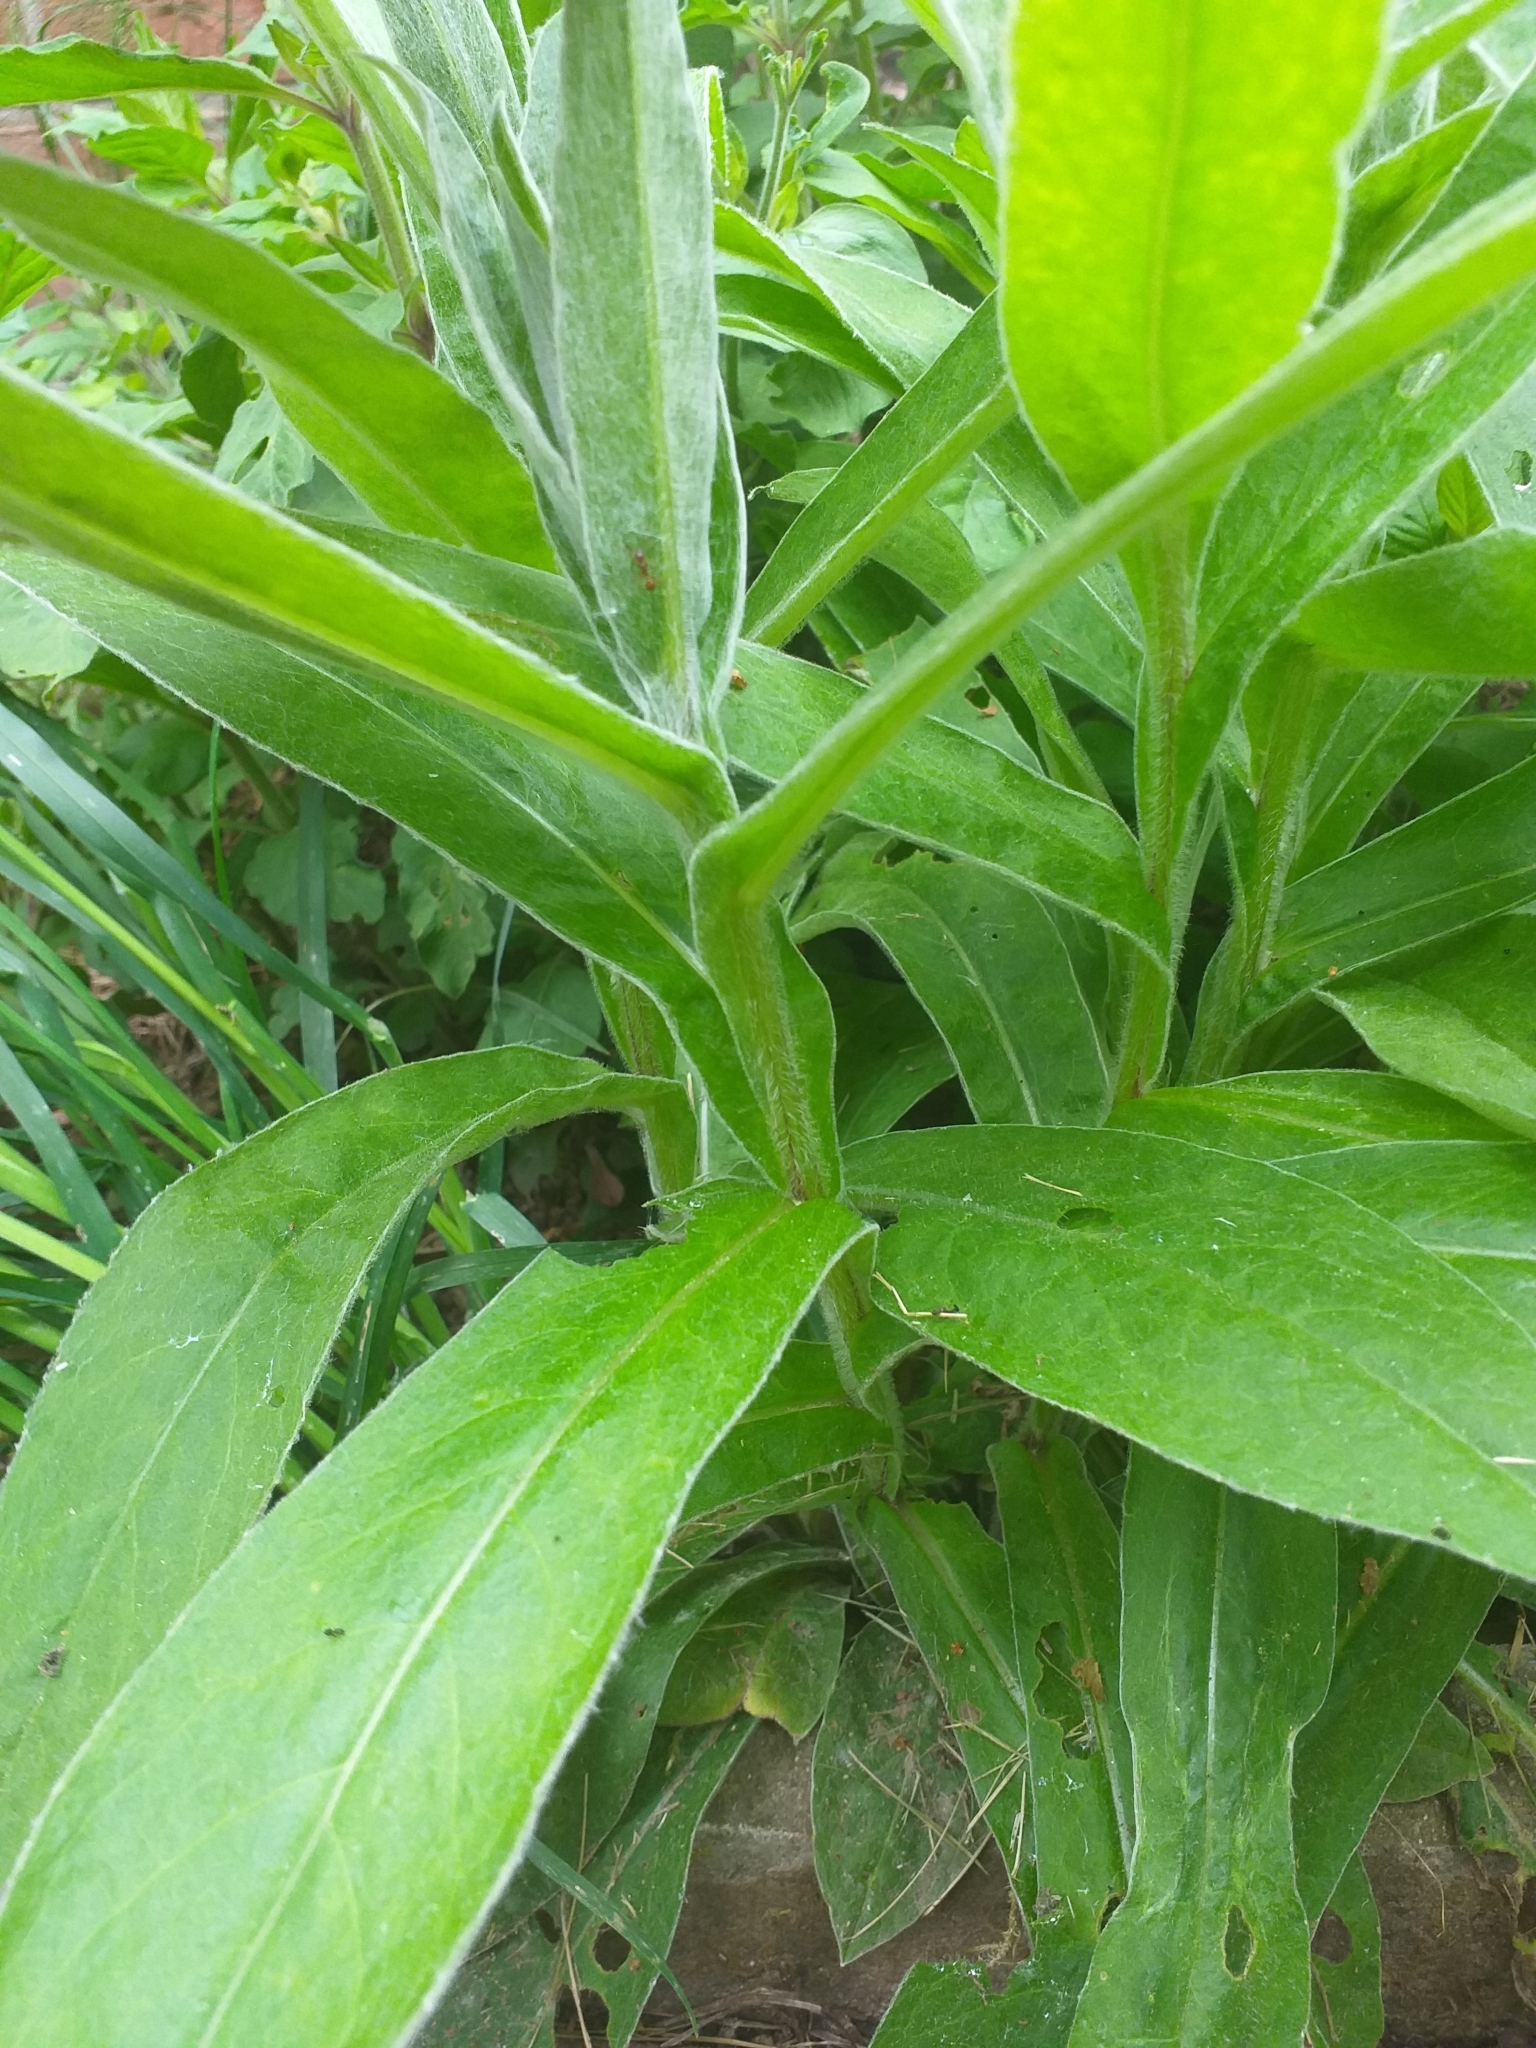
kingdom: Plantae
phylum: Tracheophyta
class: Magnoliopsida
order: Asterales
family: Asteraceae
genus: Centaurea
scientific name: Centaurea montana
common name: Perennial cornflower
